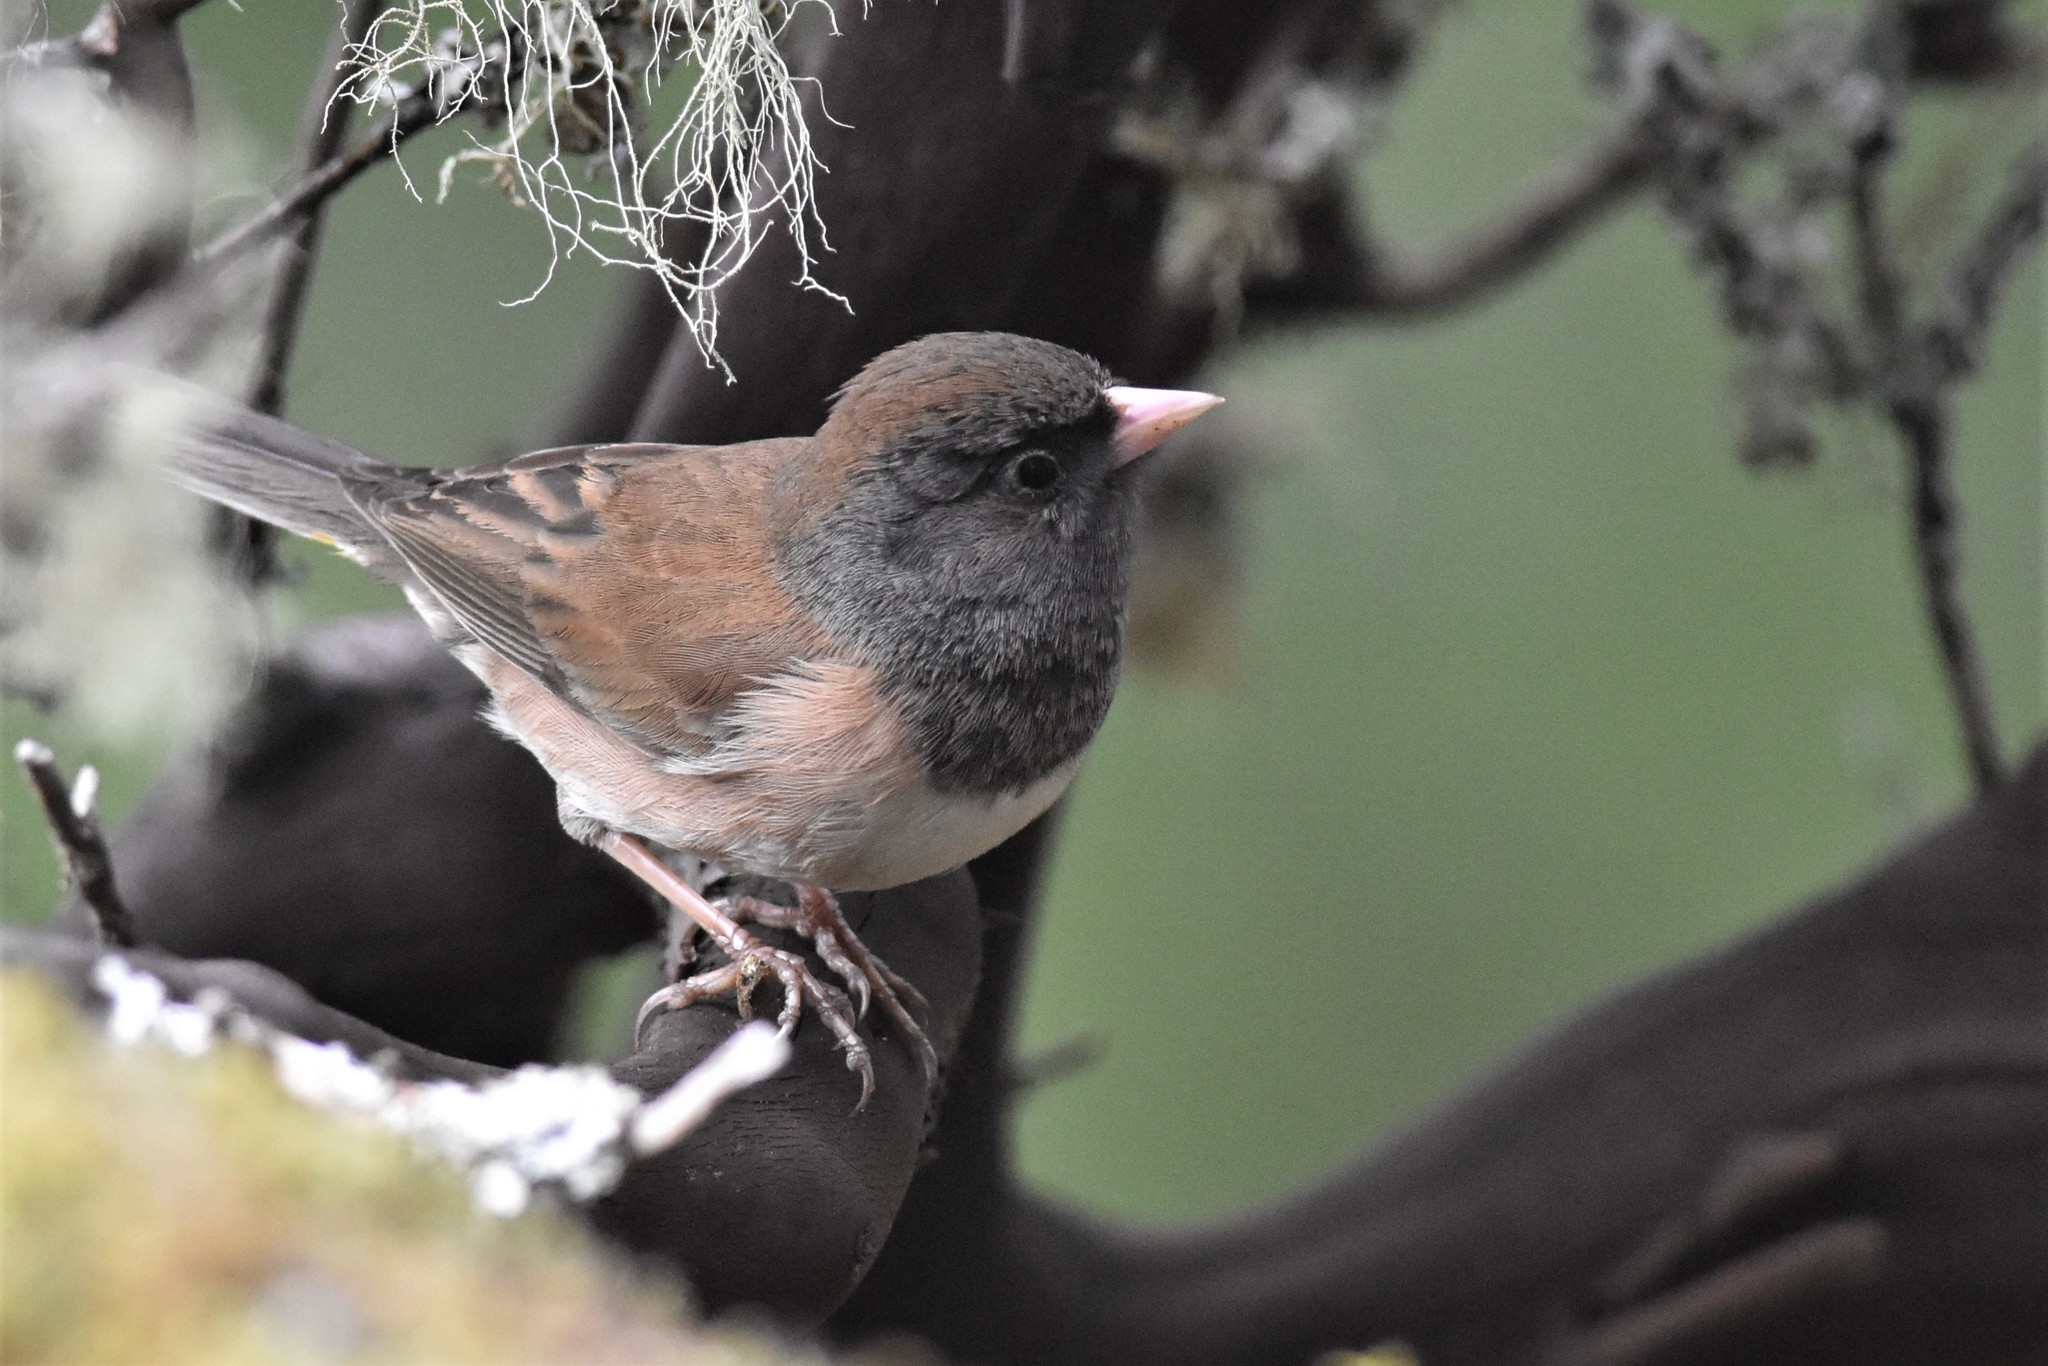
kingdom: Animalia
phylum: Chordata
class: Aves
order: Passeriformes
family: Passerellidae
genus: Junco
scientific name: Junco hyemalis
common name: Dark-eyed junco
